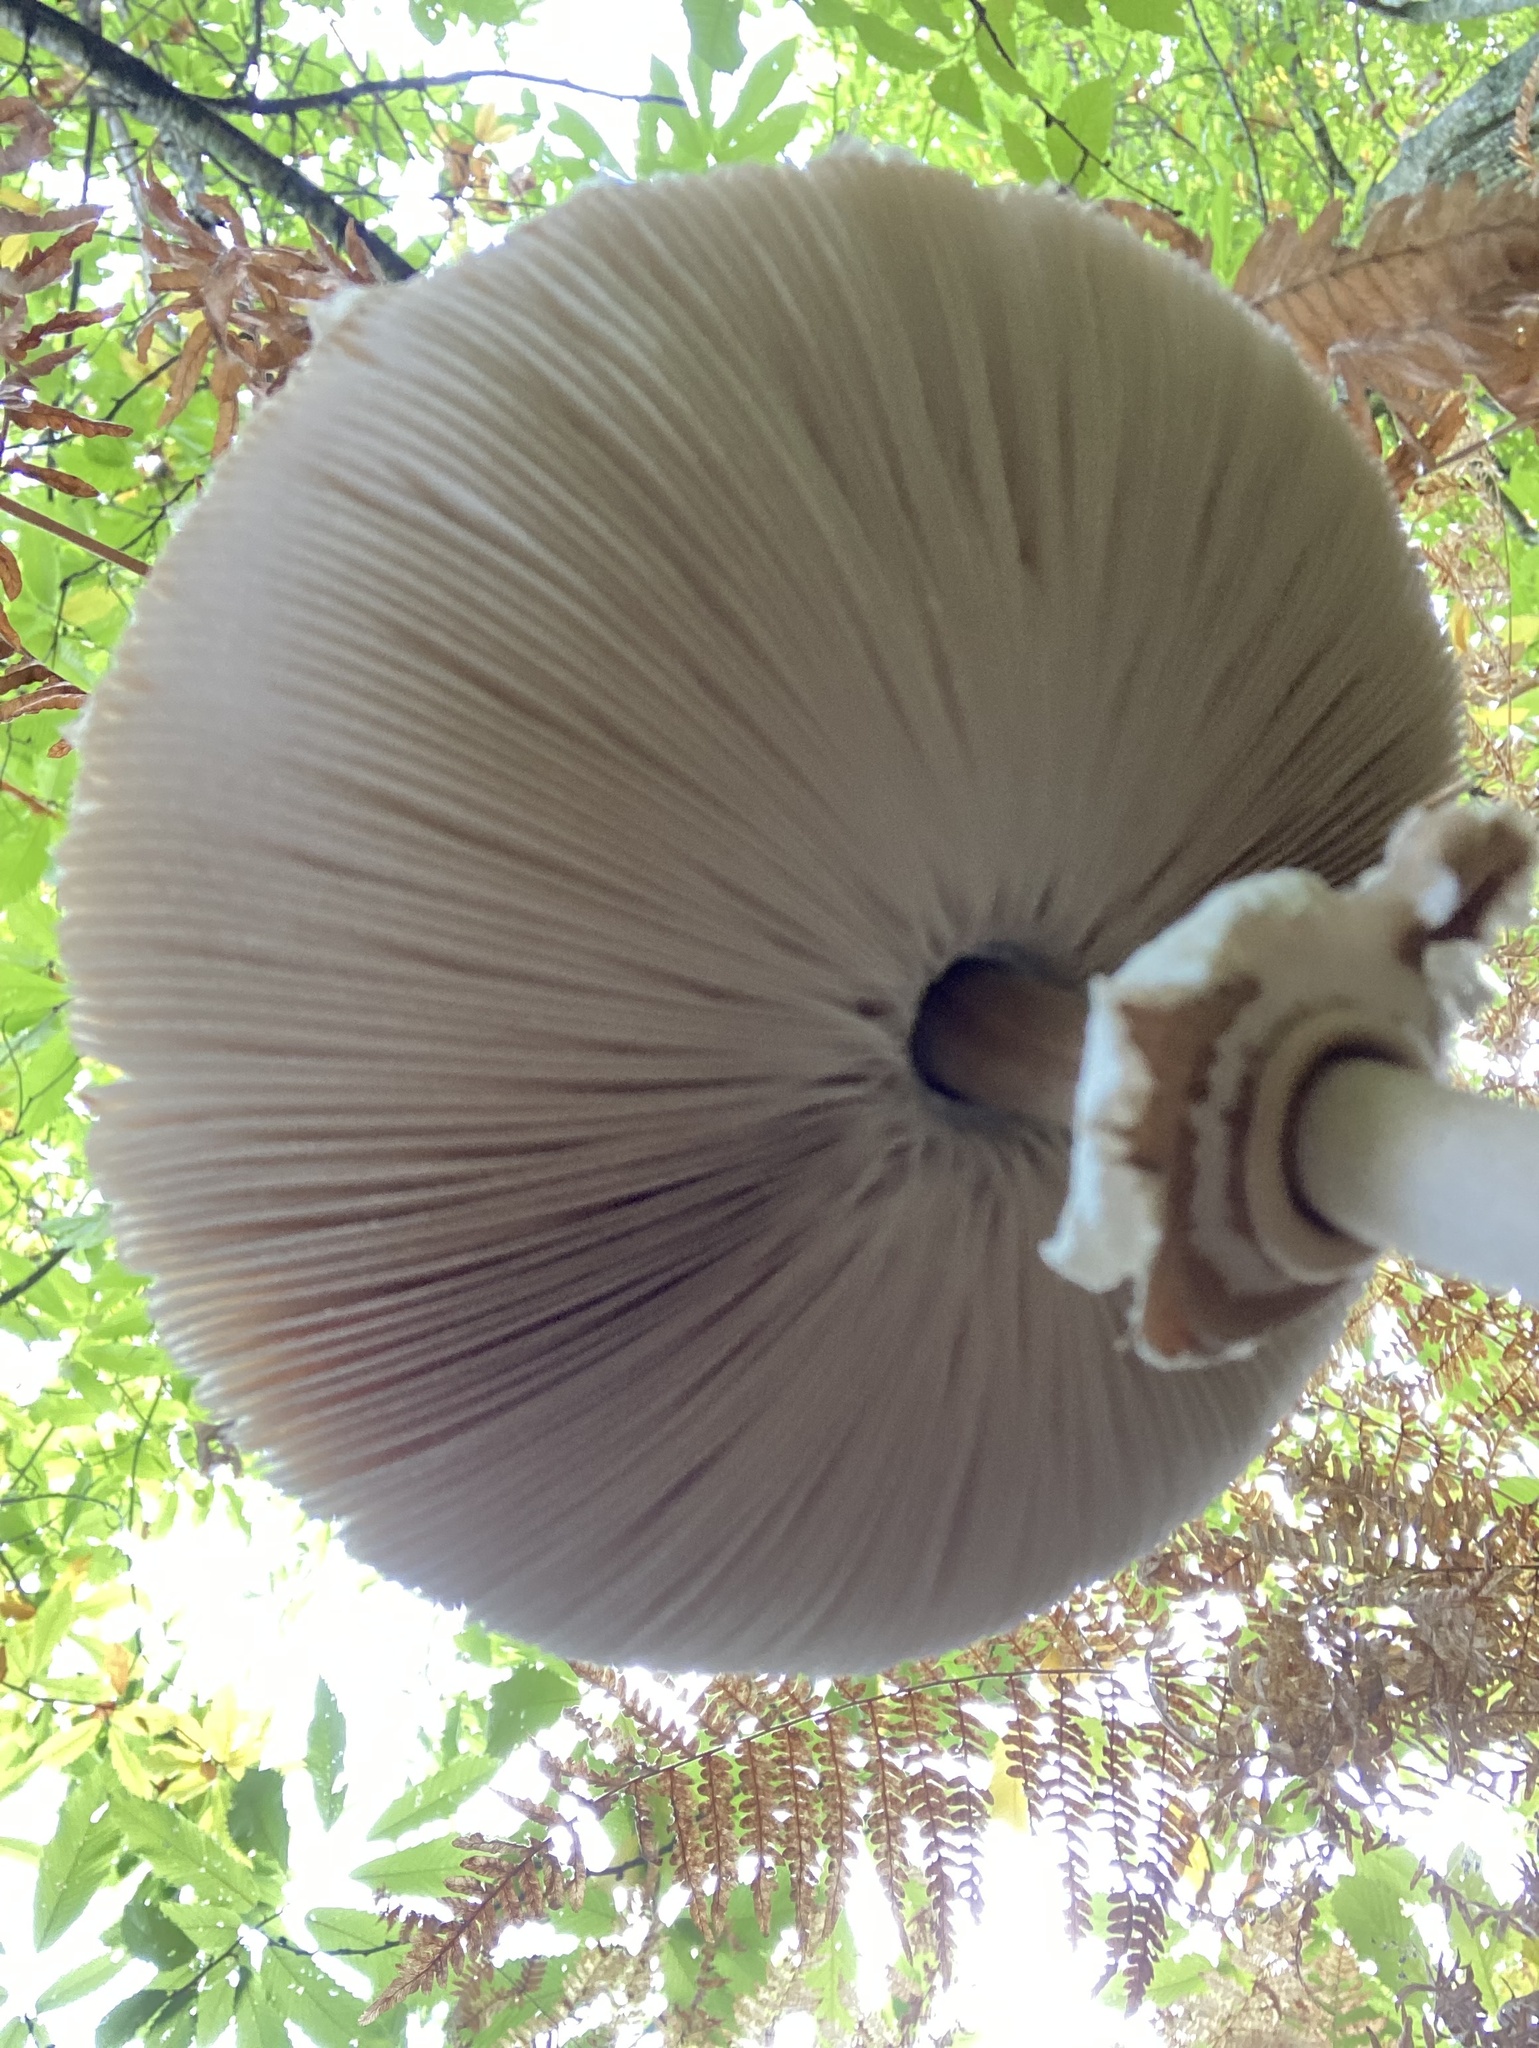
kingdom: Fungi
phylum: Basidiomycota
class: Agaricomycetes
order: Agaricales
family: Agaricaceae
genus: Macrolepiota
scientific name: Macrolepiota procera
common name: Parasol
